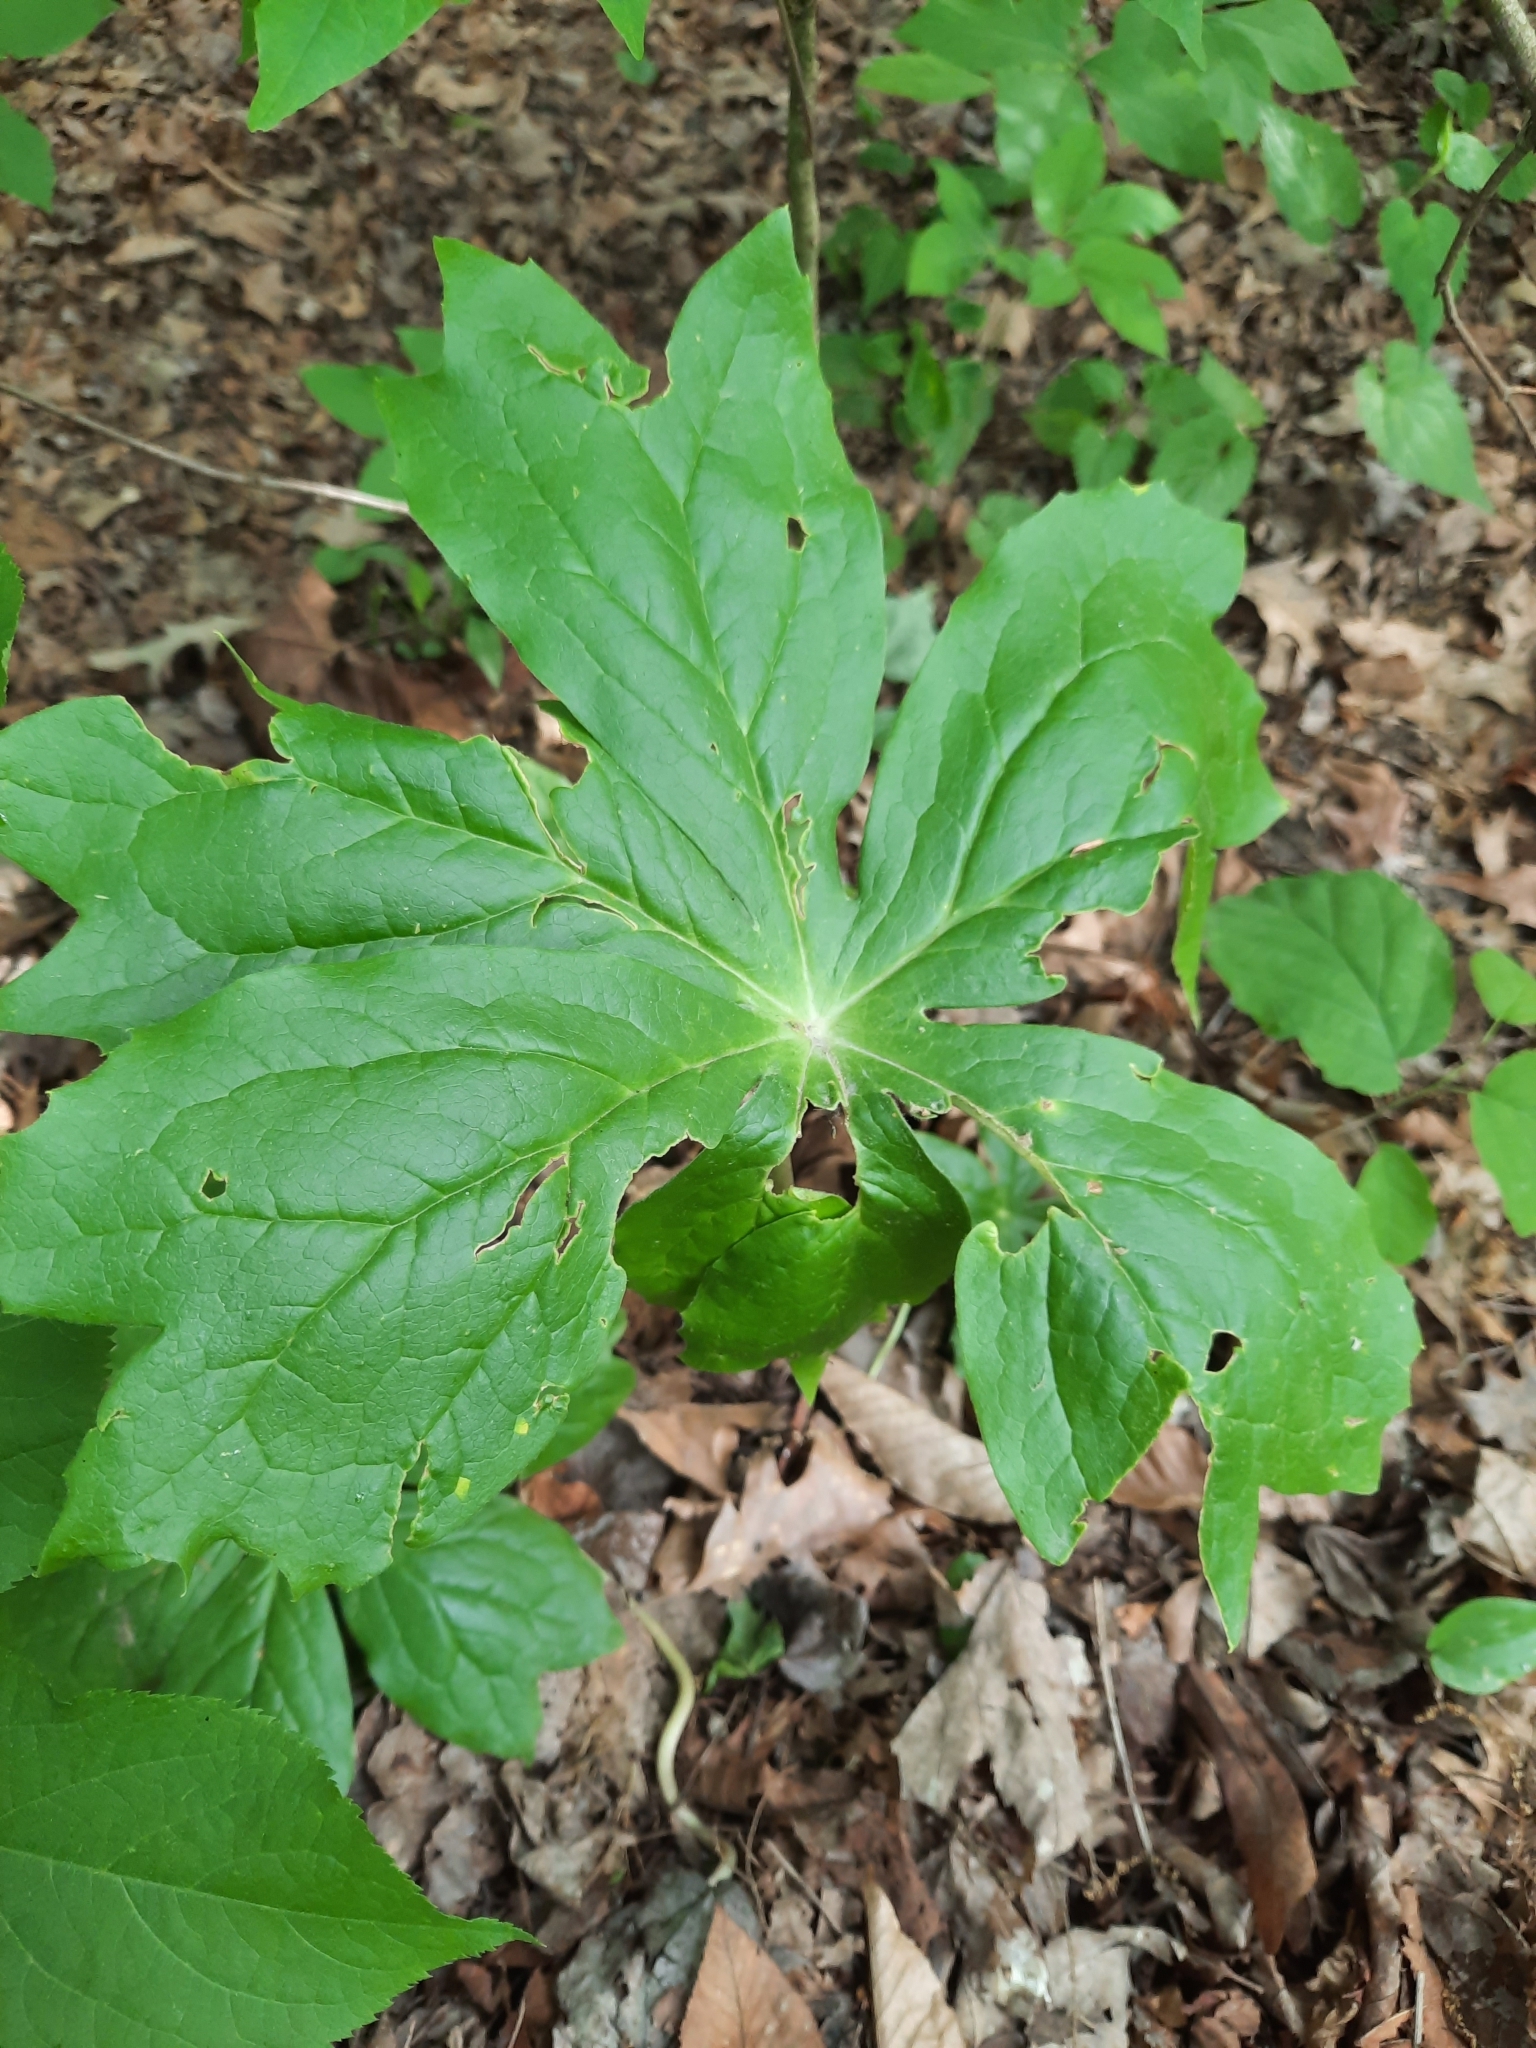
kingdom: Plantae
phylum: Tracheophyta
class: Magnoliopsida
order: Ranunculales
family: Berberidaceae
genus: Podophyllum
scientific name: Podophyllum peltatum
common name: Wild mandrake
